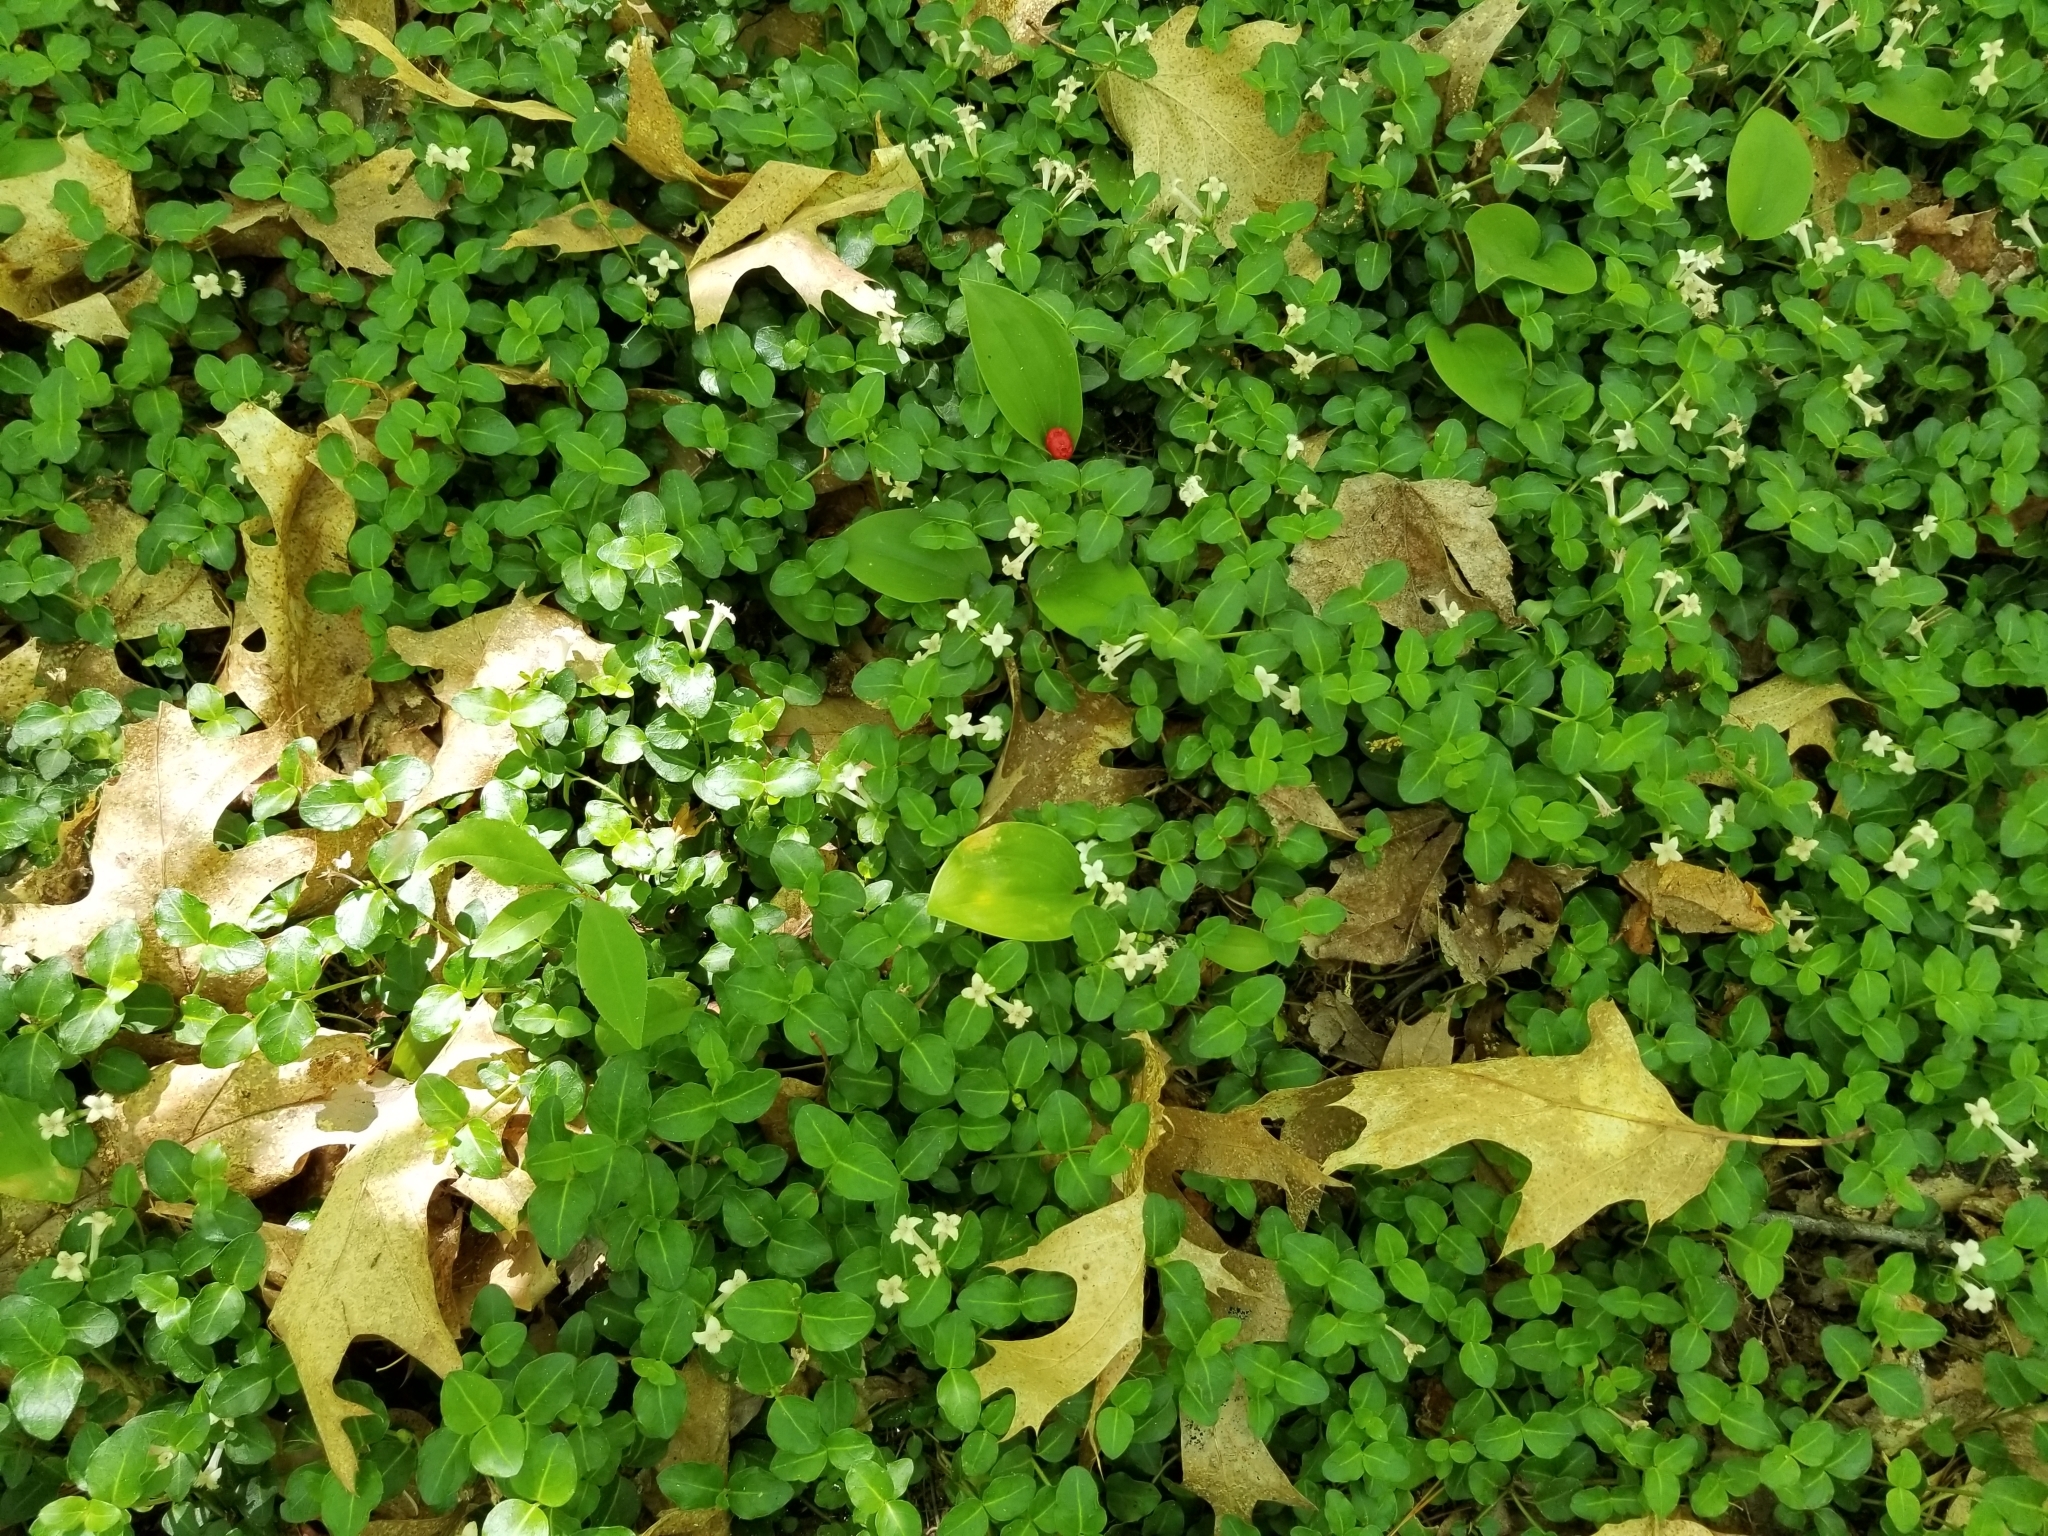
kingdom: Plantae
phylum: Tracheophyta
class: Magnoliopsida
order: Gentianales
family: Rubiaceae
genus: Mitchella
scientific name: Mitchella repens
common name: Partridge-berry
